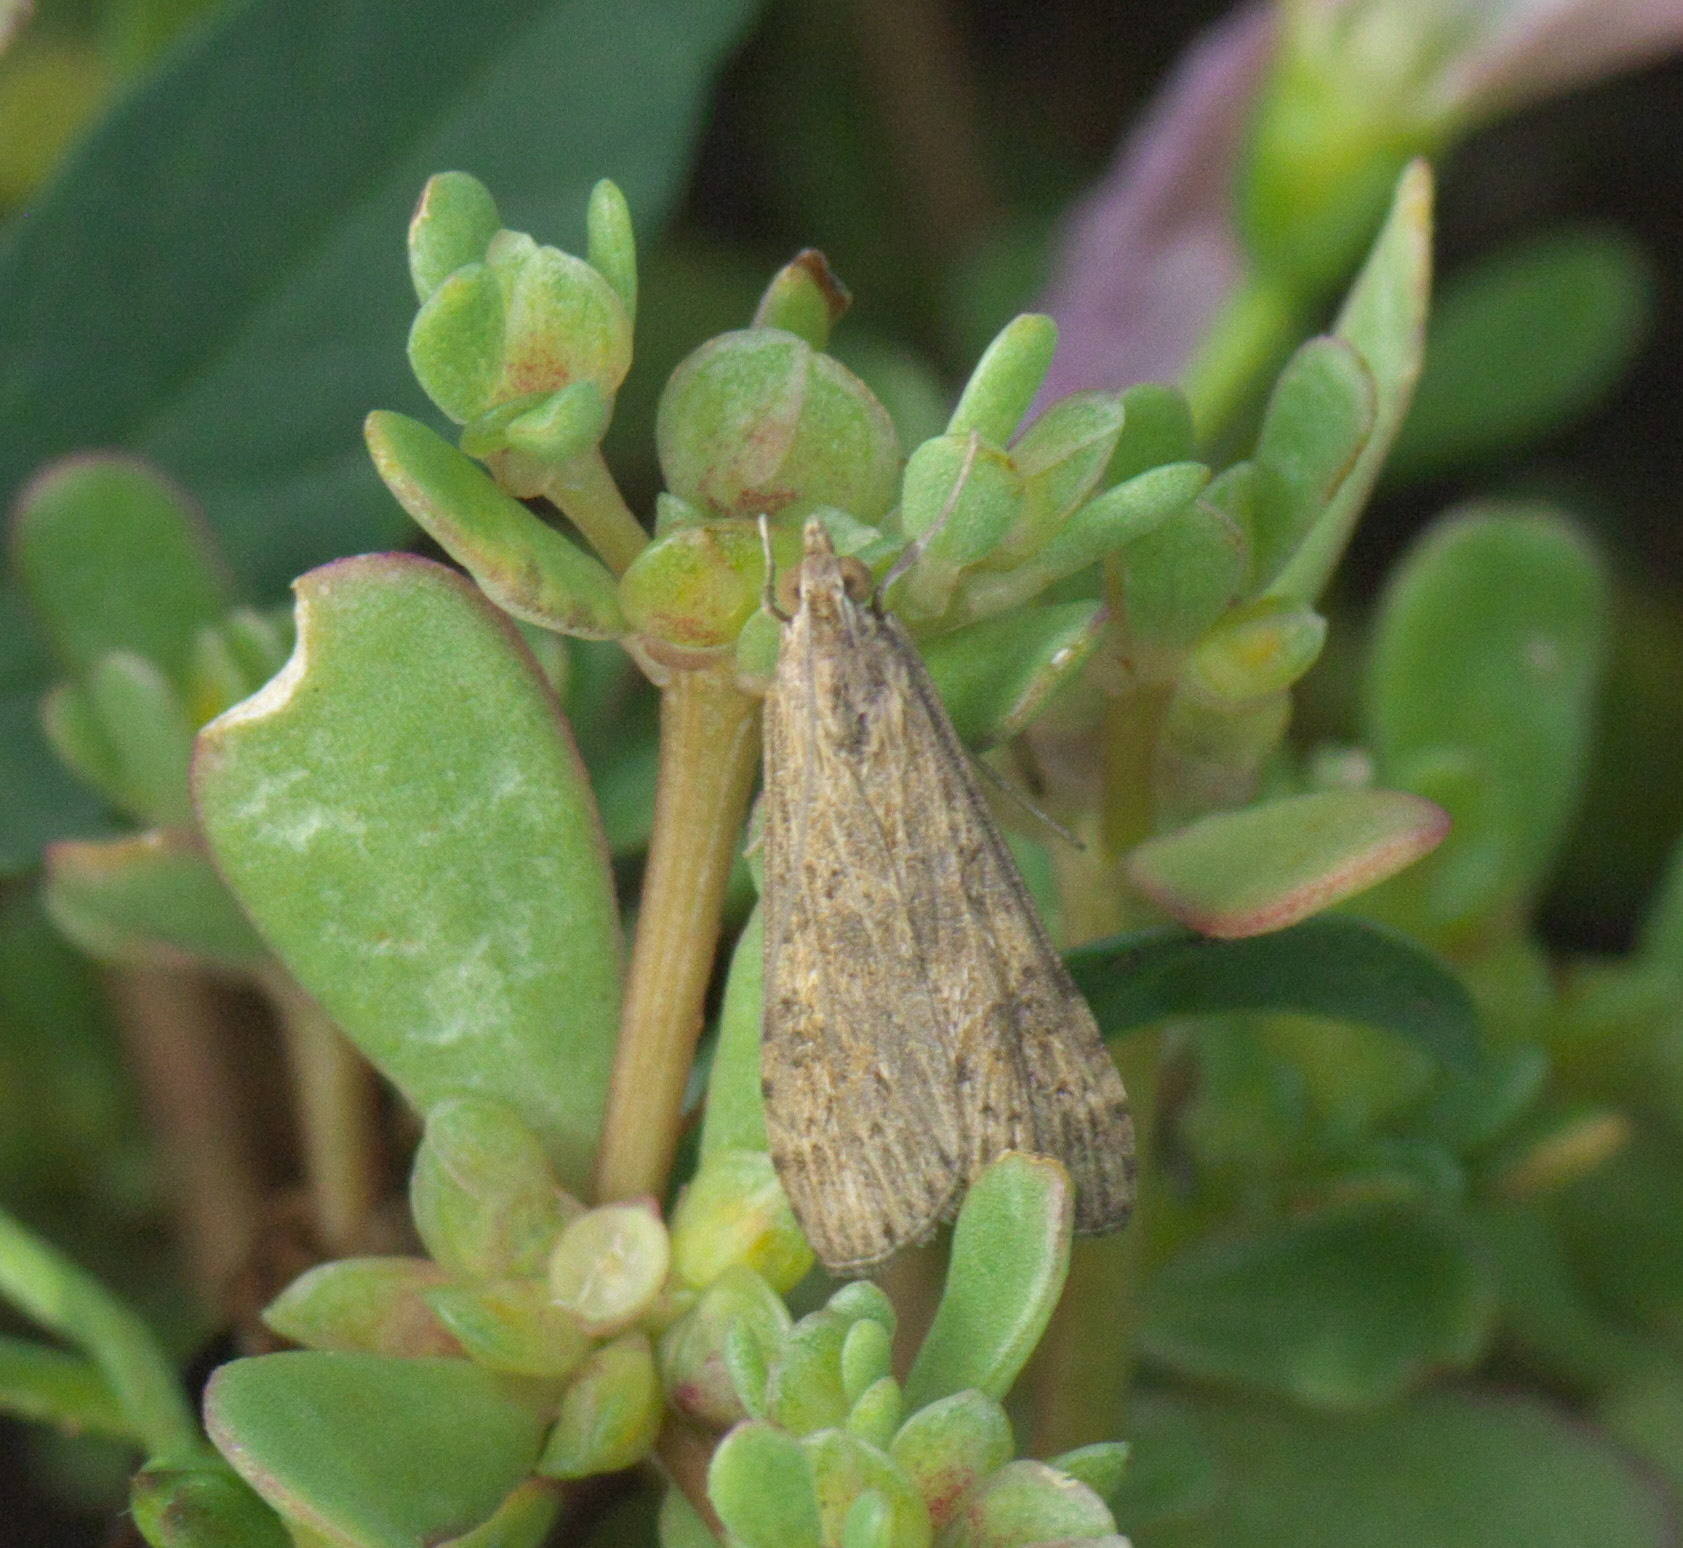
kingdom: Animalia
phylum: Arthropoda
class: Insecta
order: Lepidoptera
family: Crambidae
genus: Nomophila
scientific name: Nomophila nearctica
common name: American rush veneer
